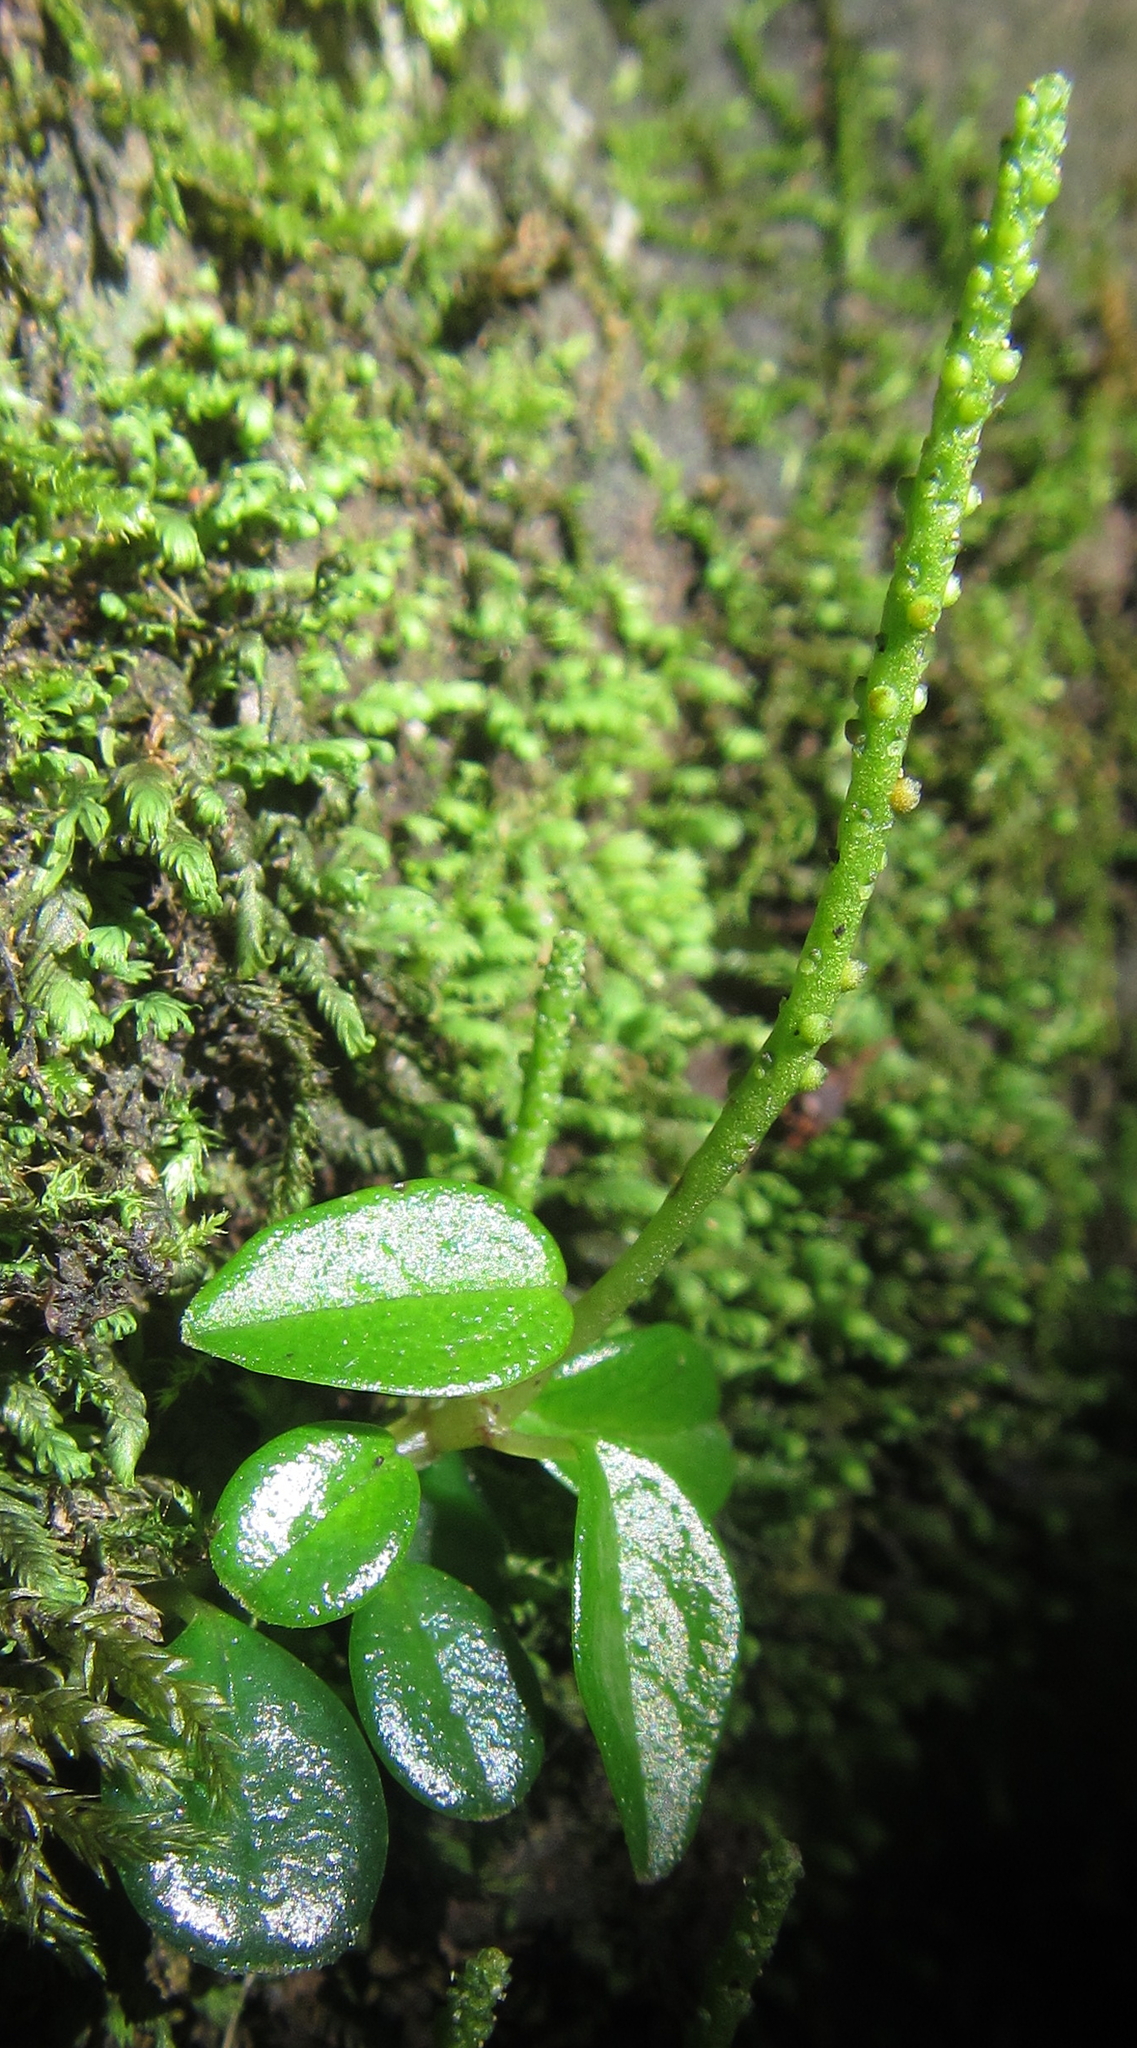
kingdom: Plantae
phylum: Tracheophyta
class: Magnoliopsida
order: Piperales
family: Piperaceae
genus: Peperomia
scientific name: Peperomia retusa
